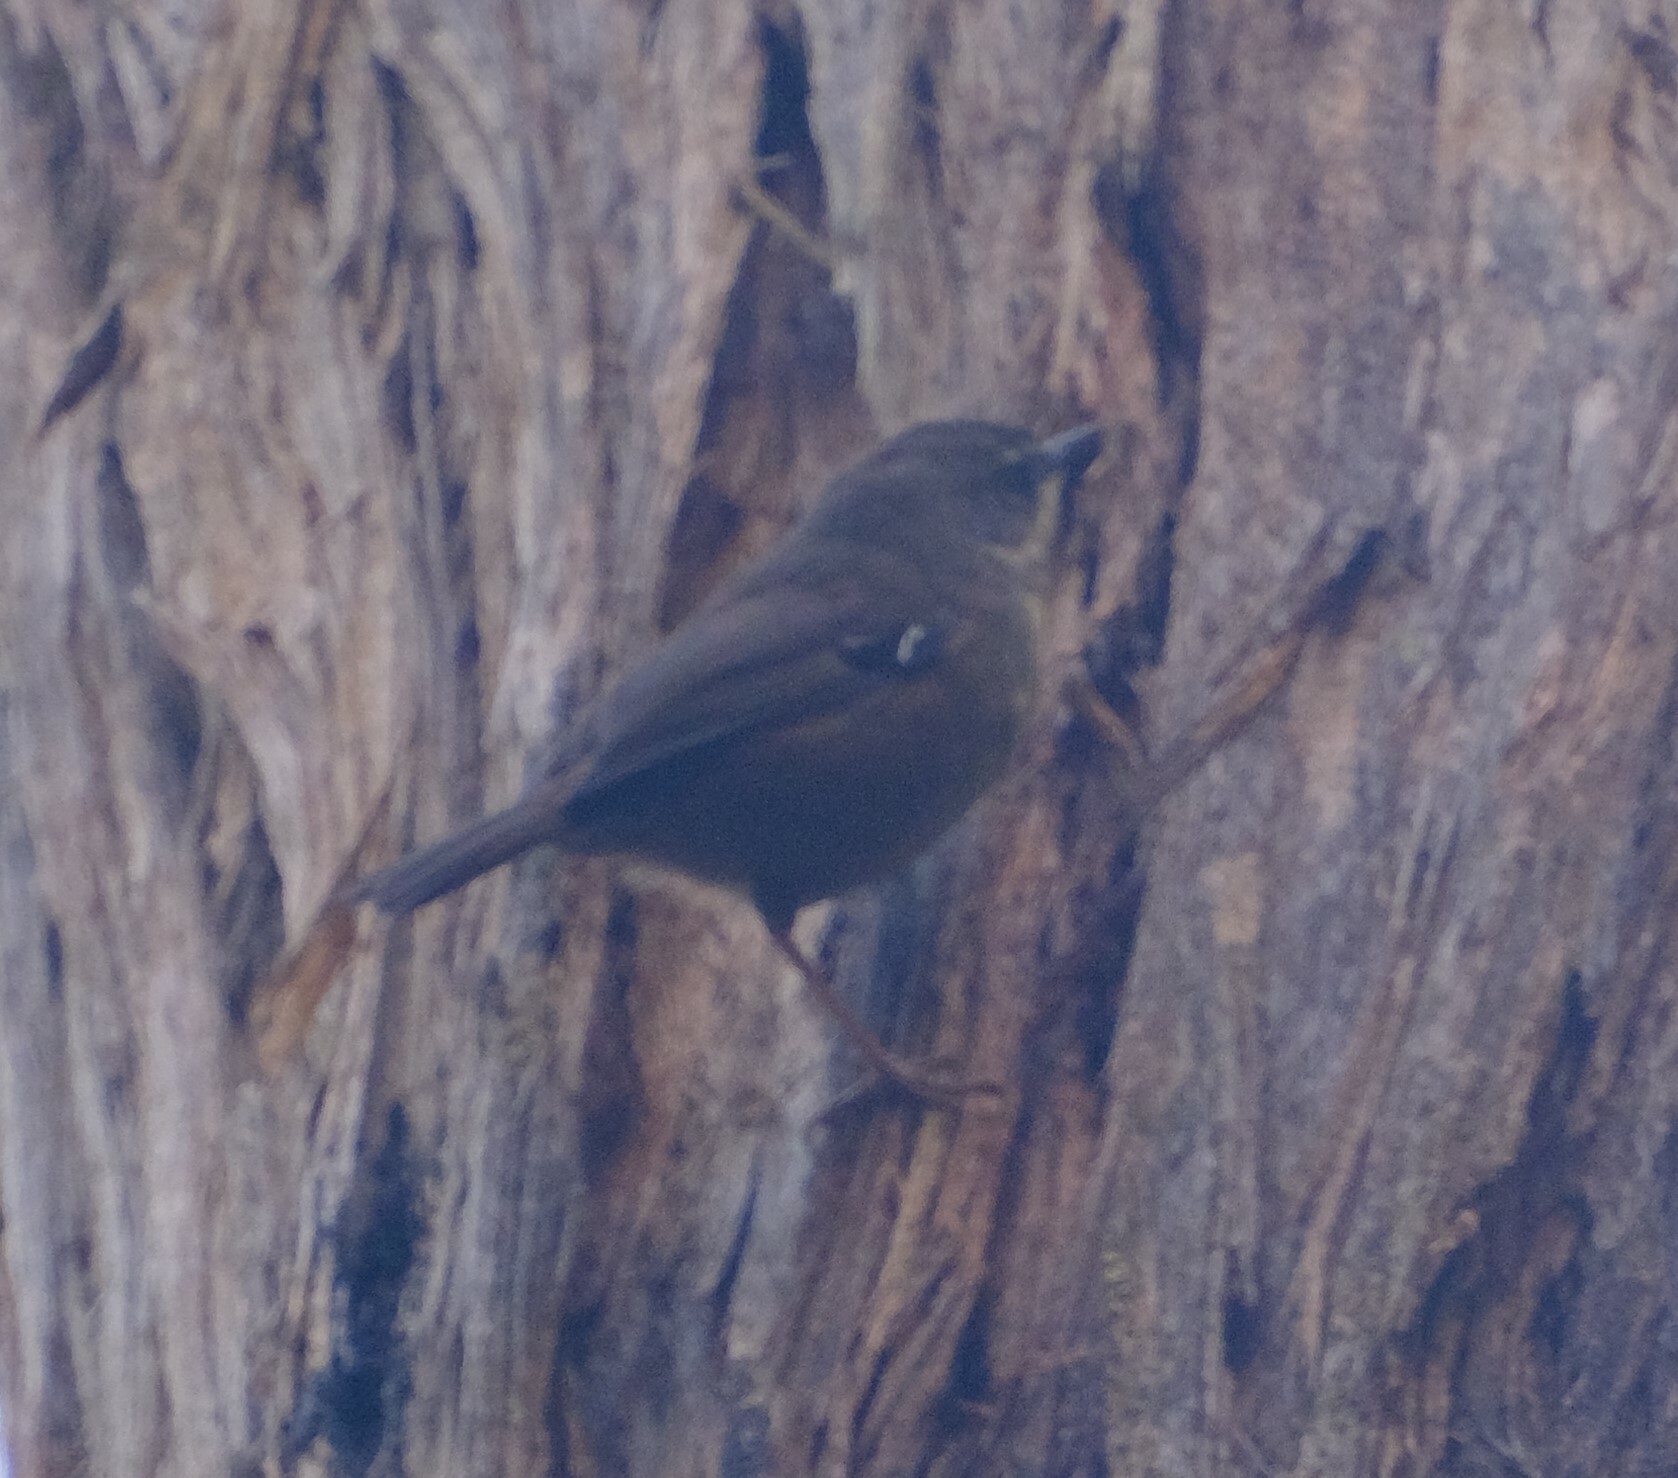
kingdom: Animalia
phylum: Chordata
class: Aves
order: Passeriformes
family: Acanthizidae
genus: Sericornis
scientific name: Sericornis frontalis
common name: White-browed scrubwren
